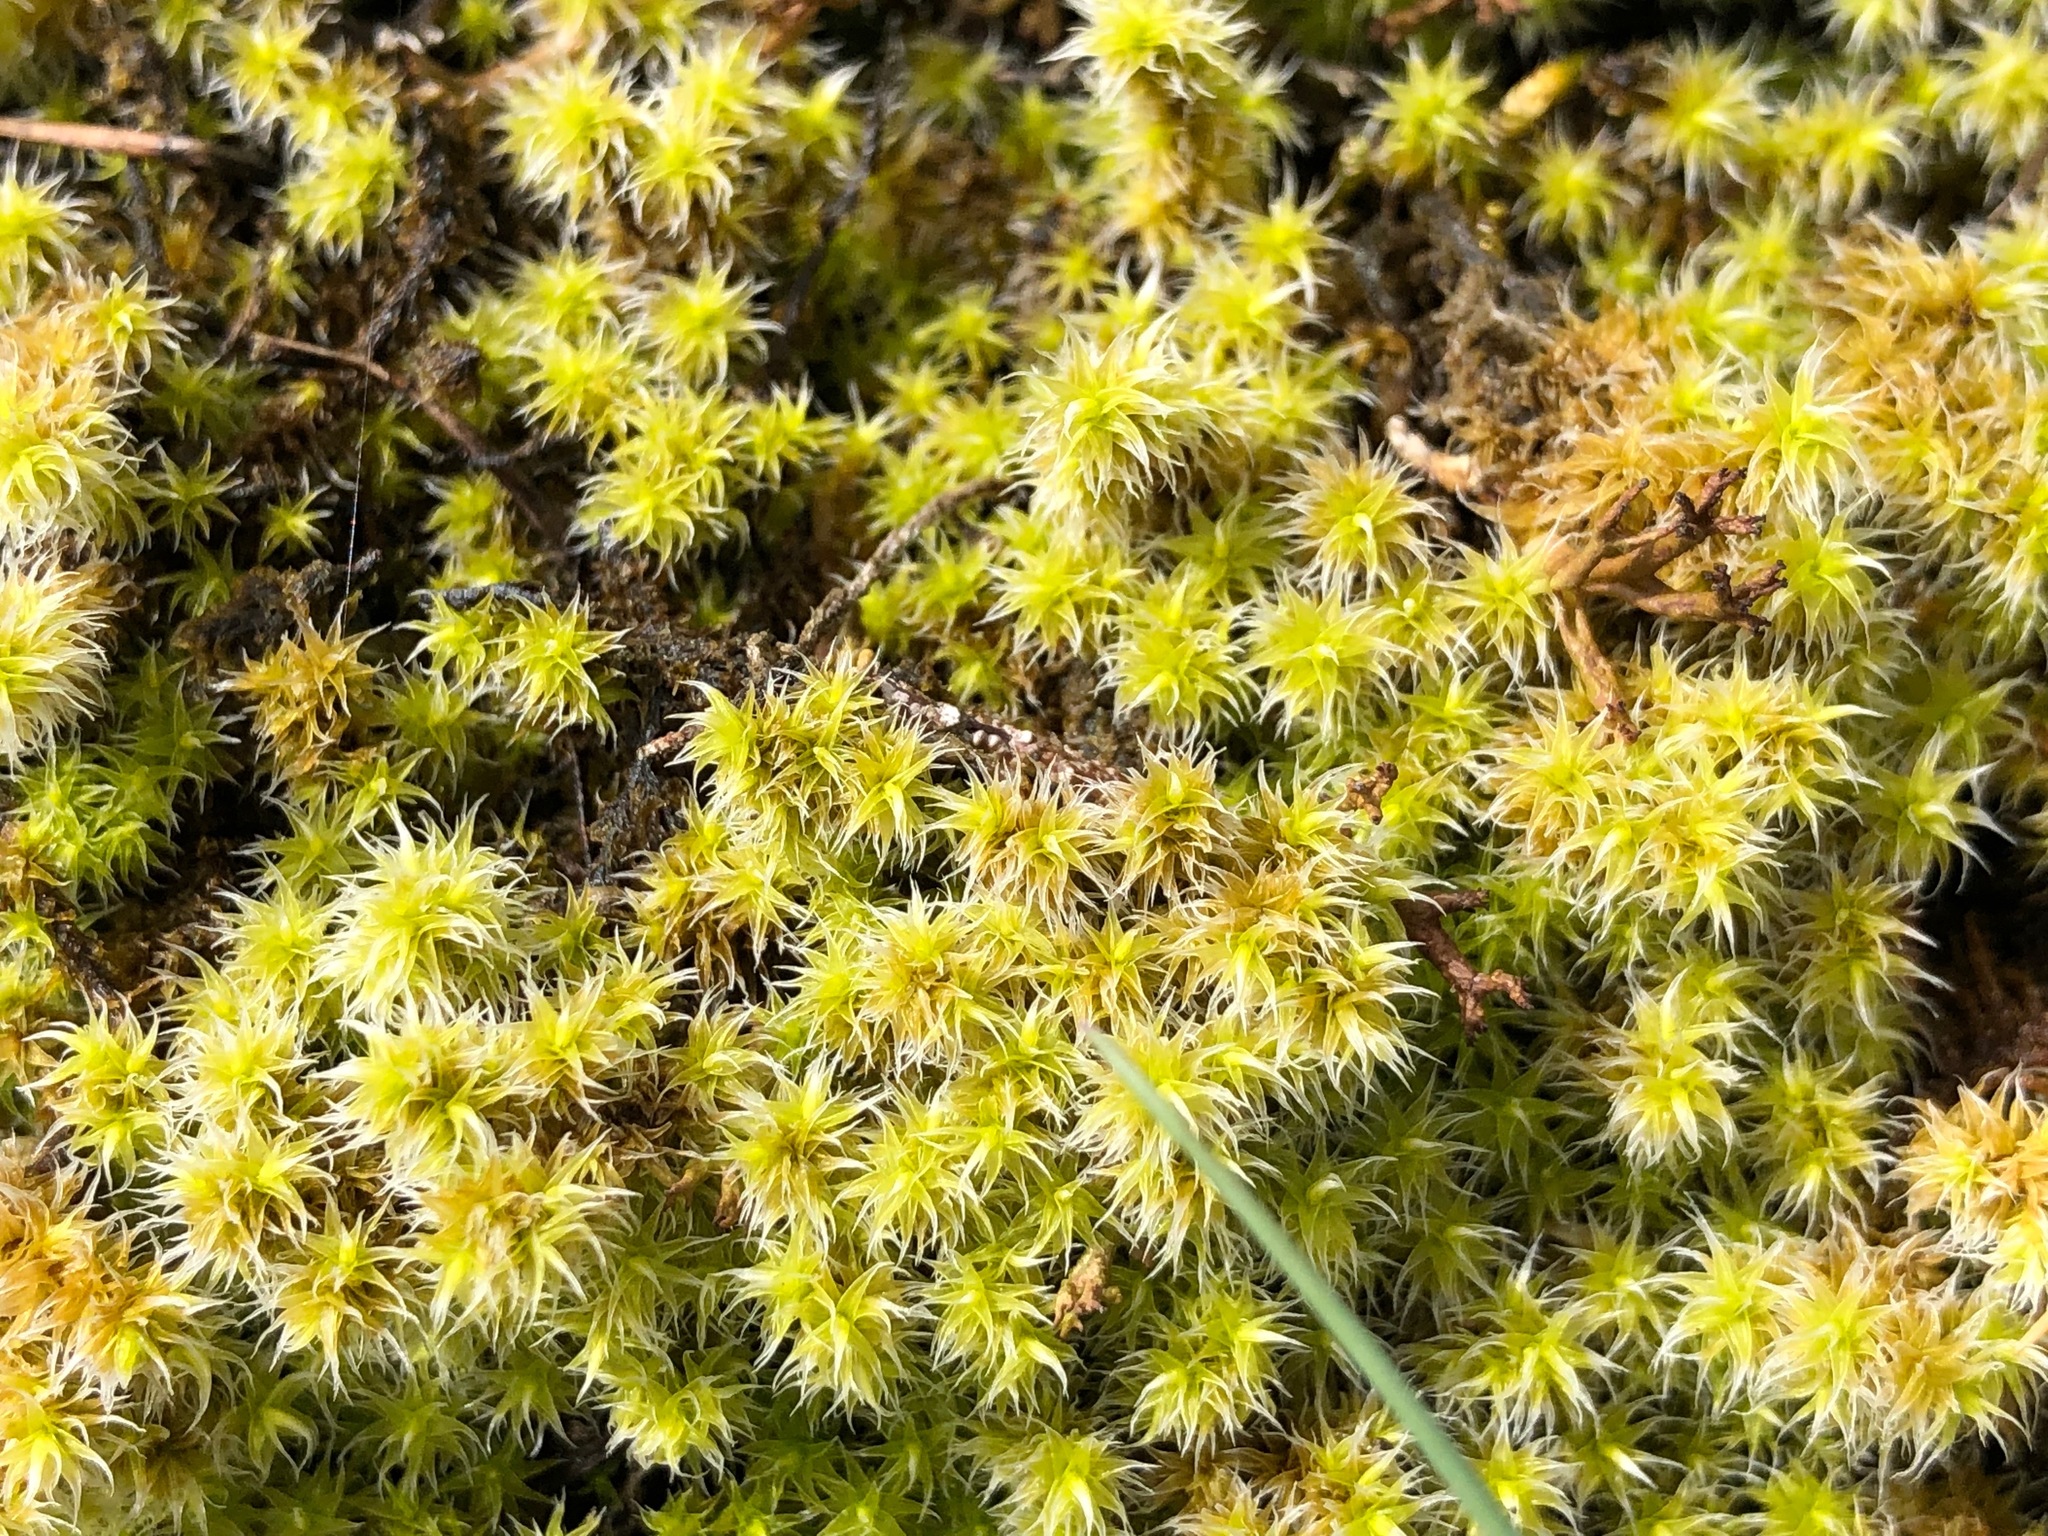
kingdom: Plantae
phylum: Bryophyta
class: Bryopsida
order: Grimmiales
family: Grimmiaceae
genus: Niphotrichum
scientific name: Niphotrichum canescens
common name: Hoary fringe-moss
